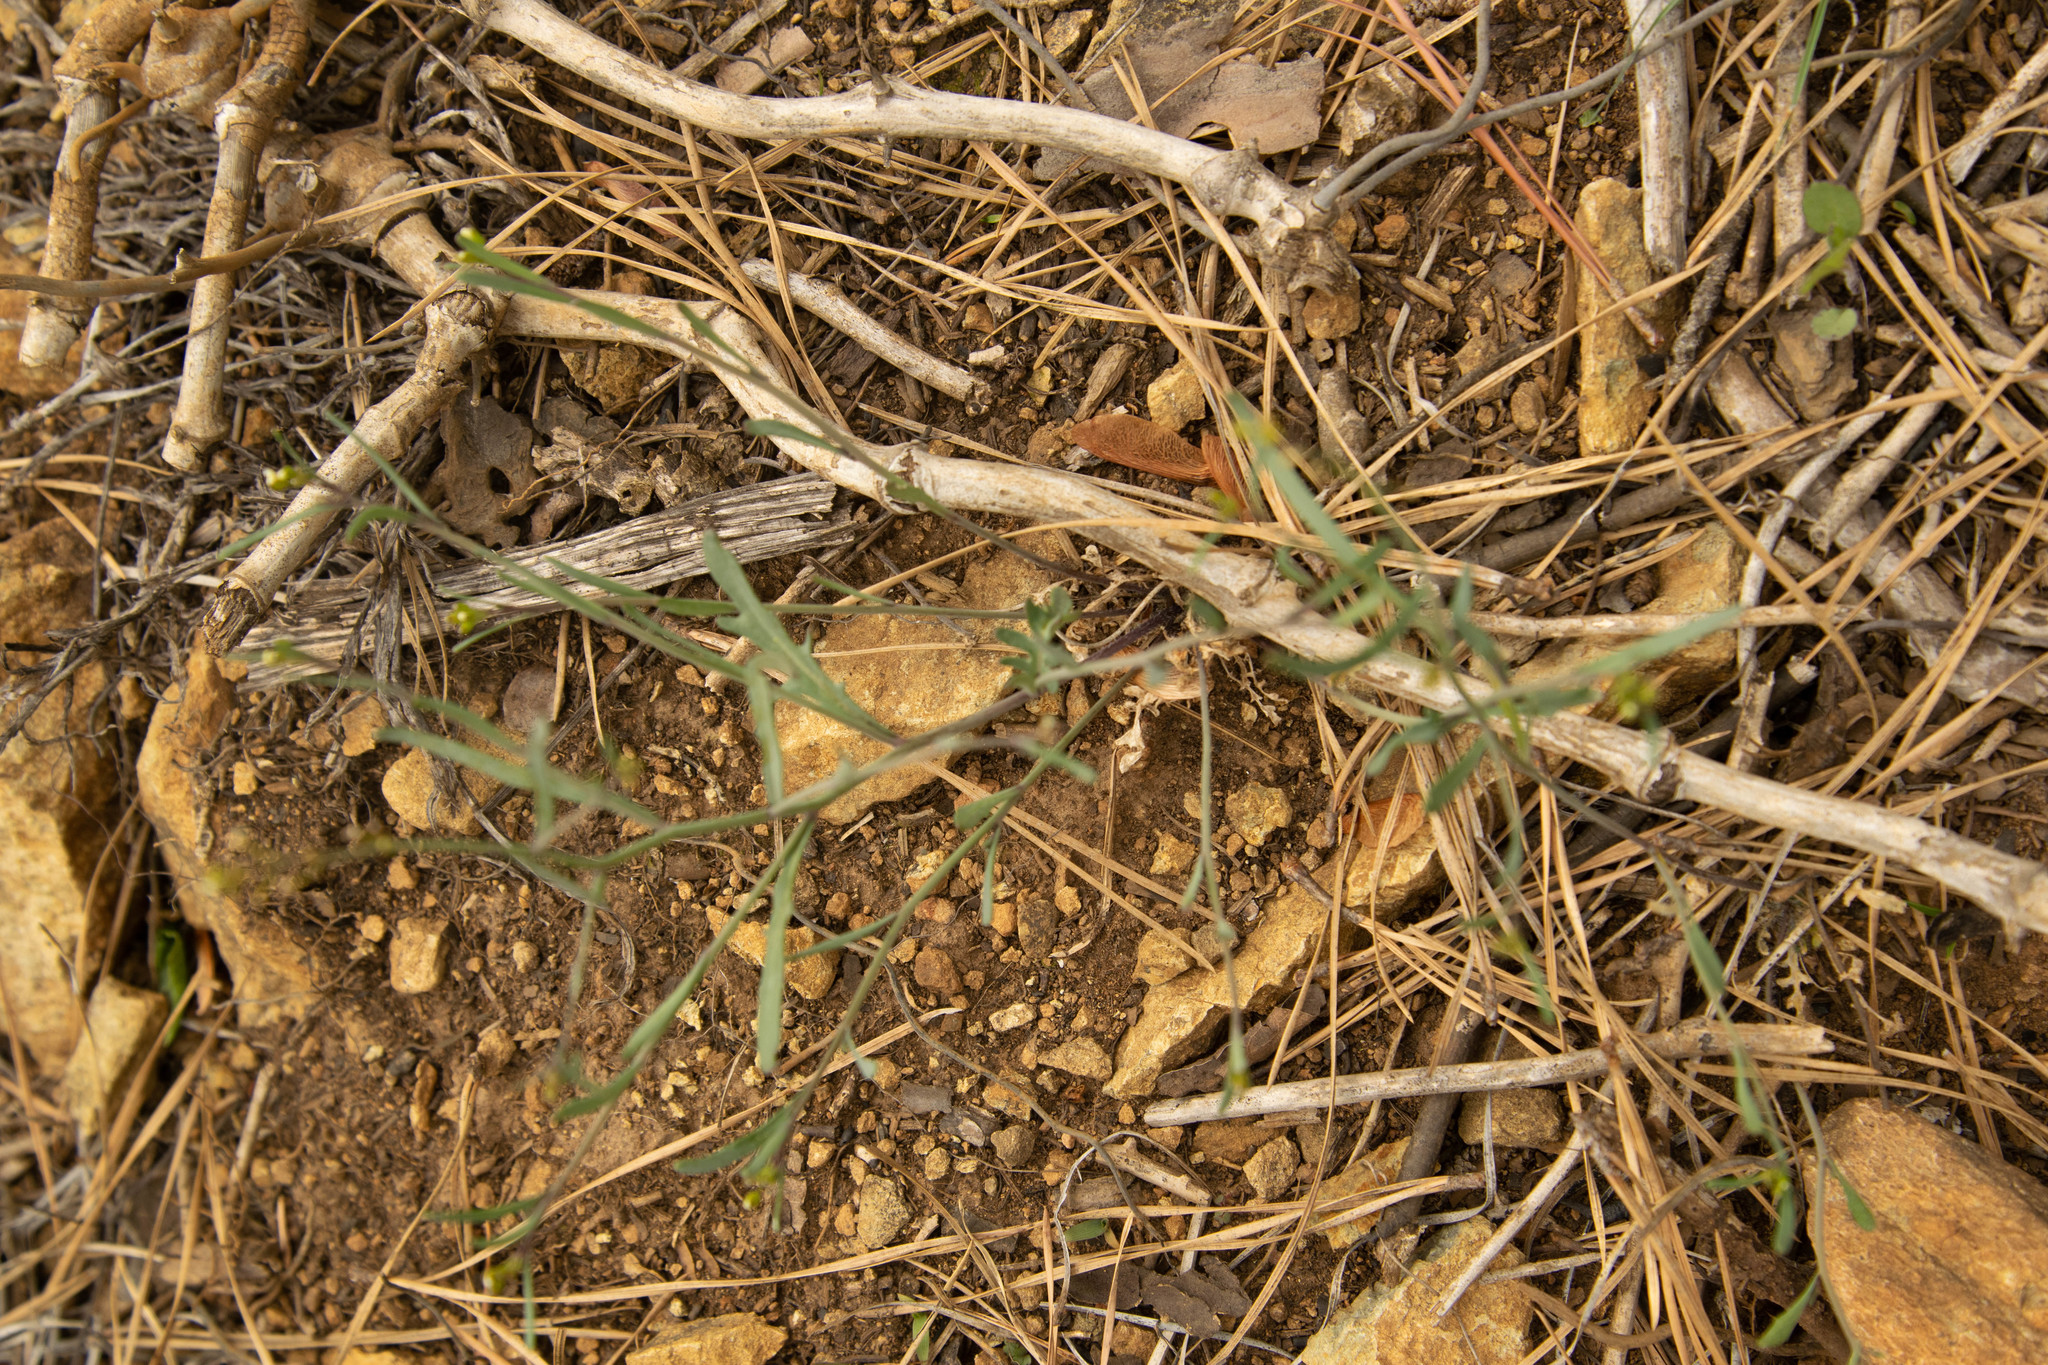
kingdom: Plantae
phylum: Tracheophyta
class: Magnoliopsida
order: Brassicales
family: Brassicaceae
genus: Arabidopsis
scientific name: Arabidopsis lyrata
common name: Lyrate rockcress
